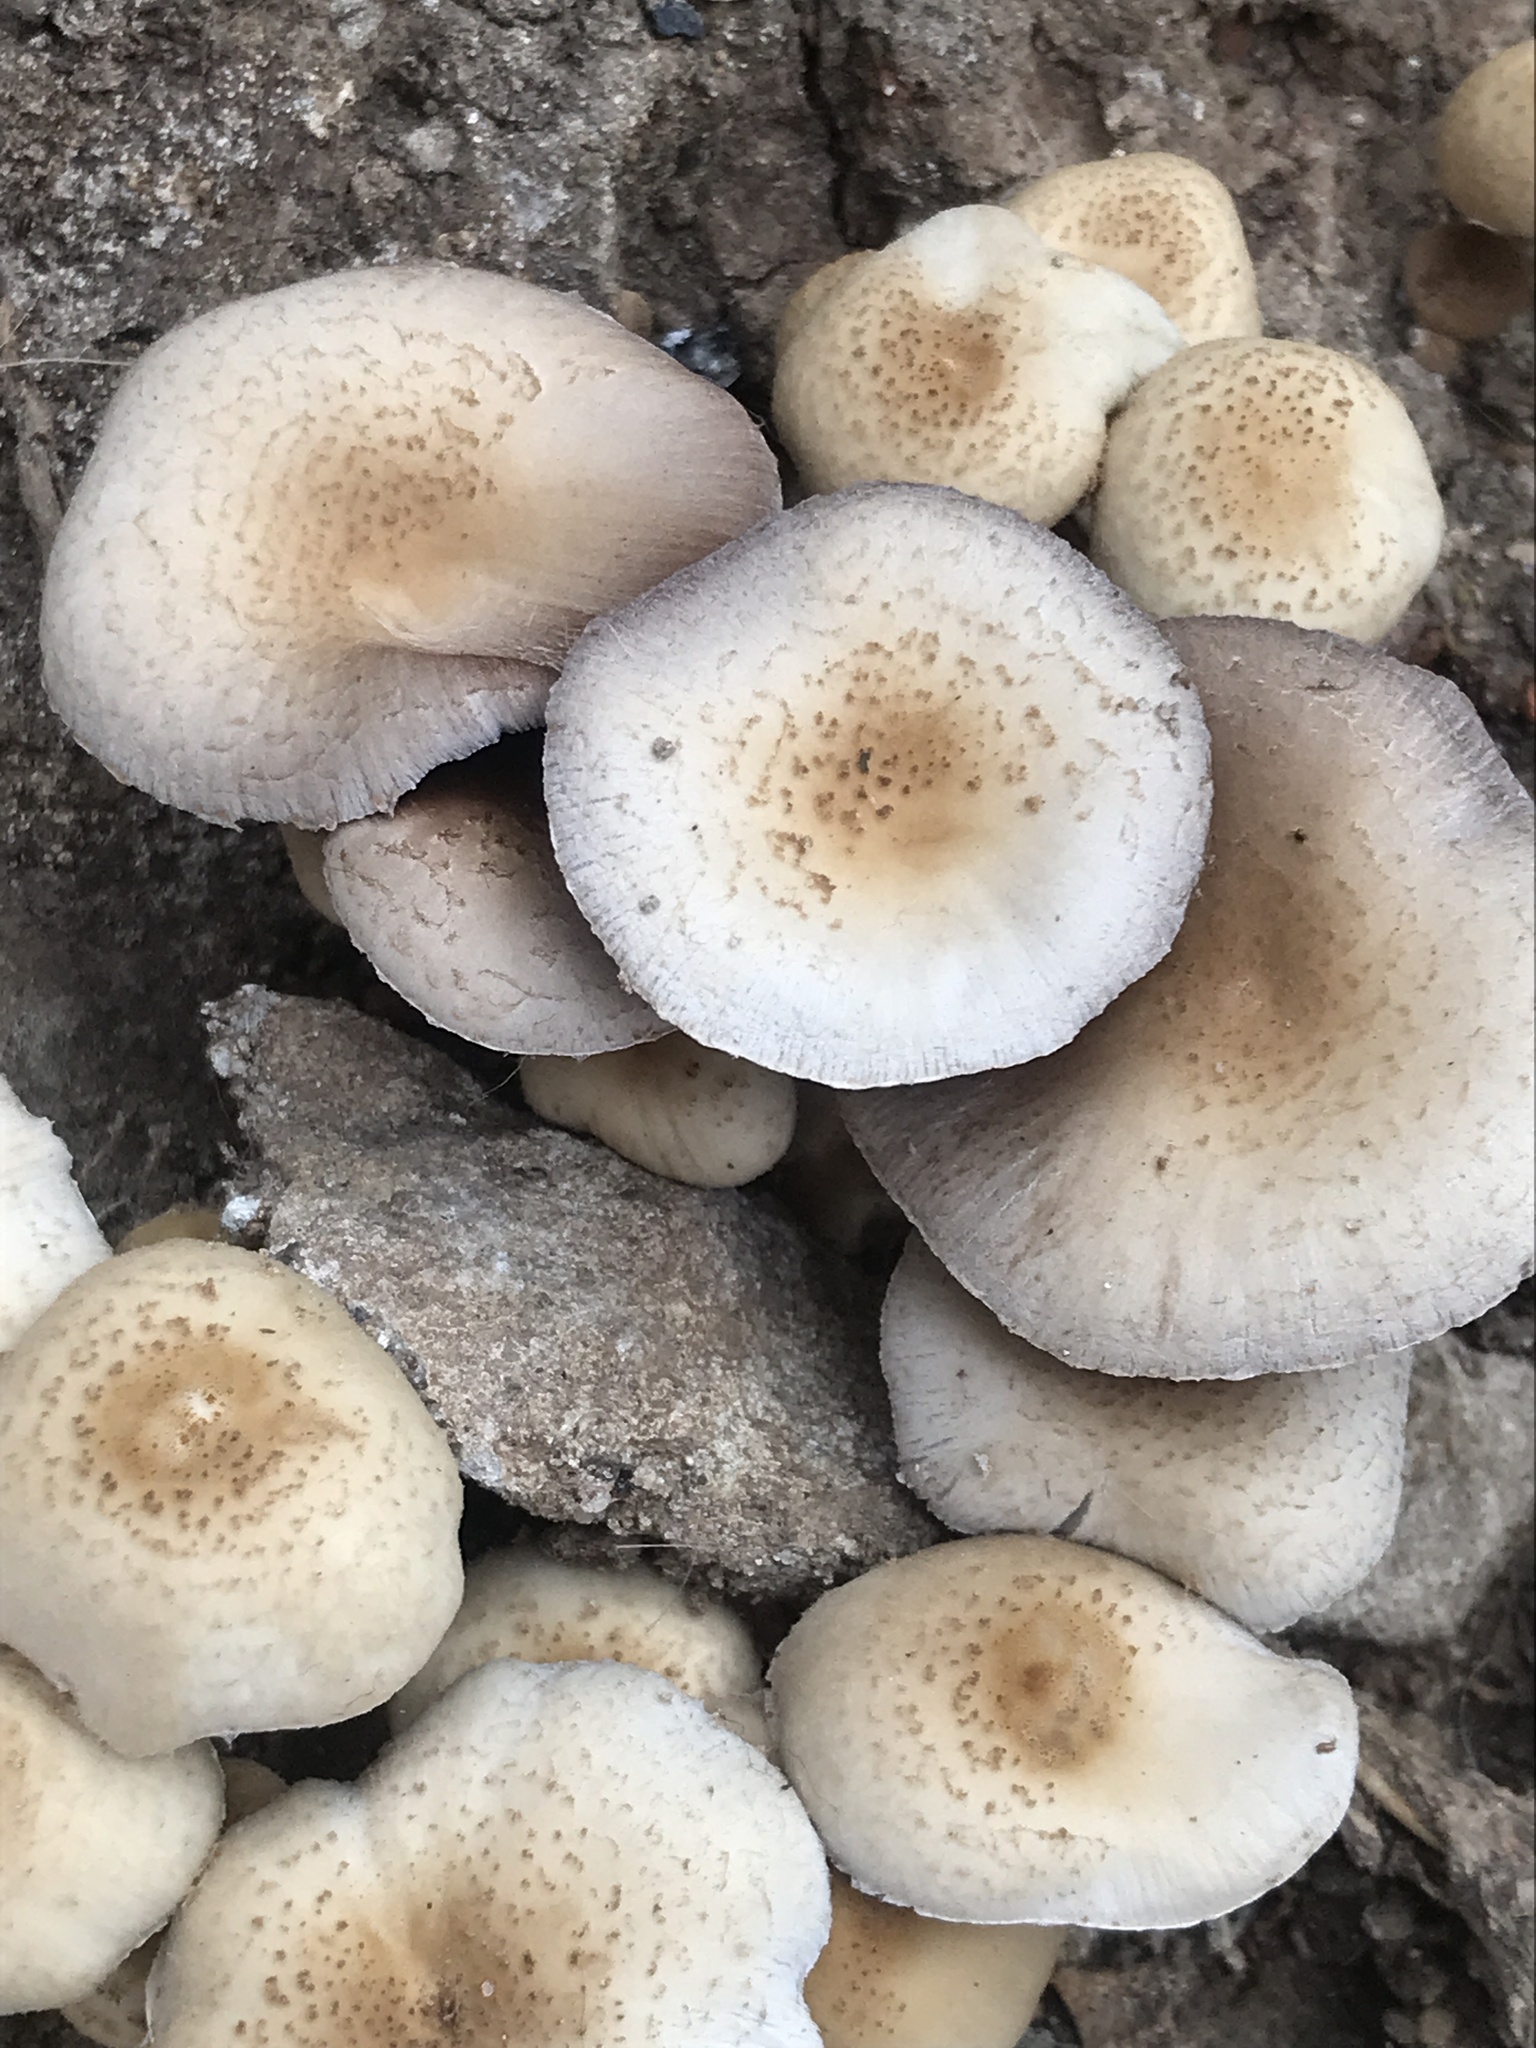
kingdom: Fungi
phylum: Basidiomycota
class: Agaricomycetes
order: Agaricales
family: Psathyrellaceae
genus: Candolleomyces
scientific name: Candolleomyces candolleanus
